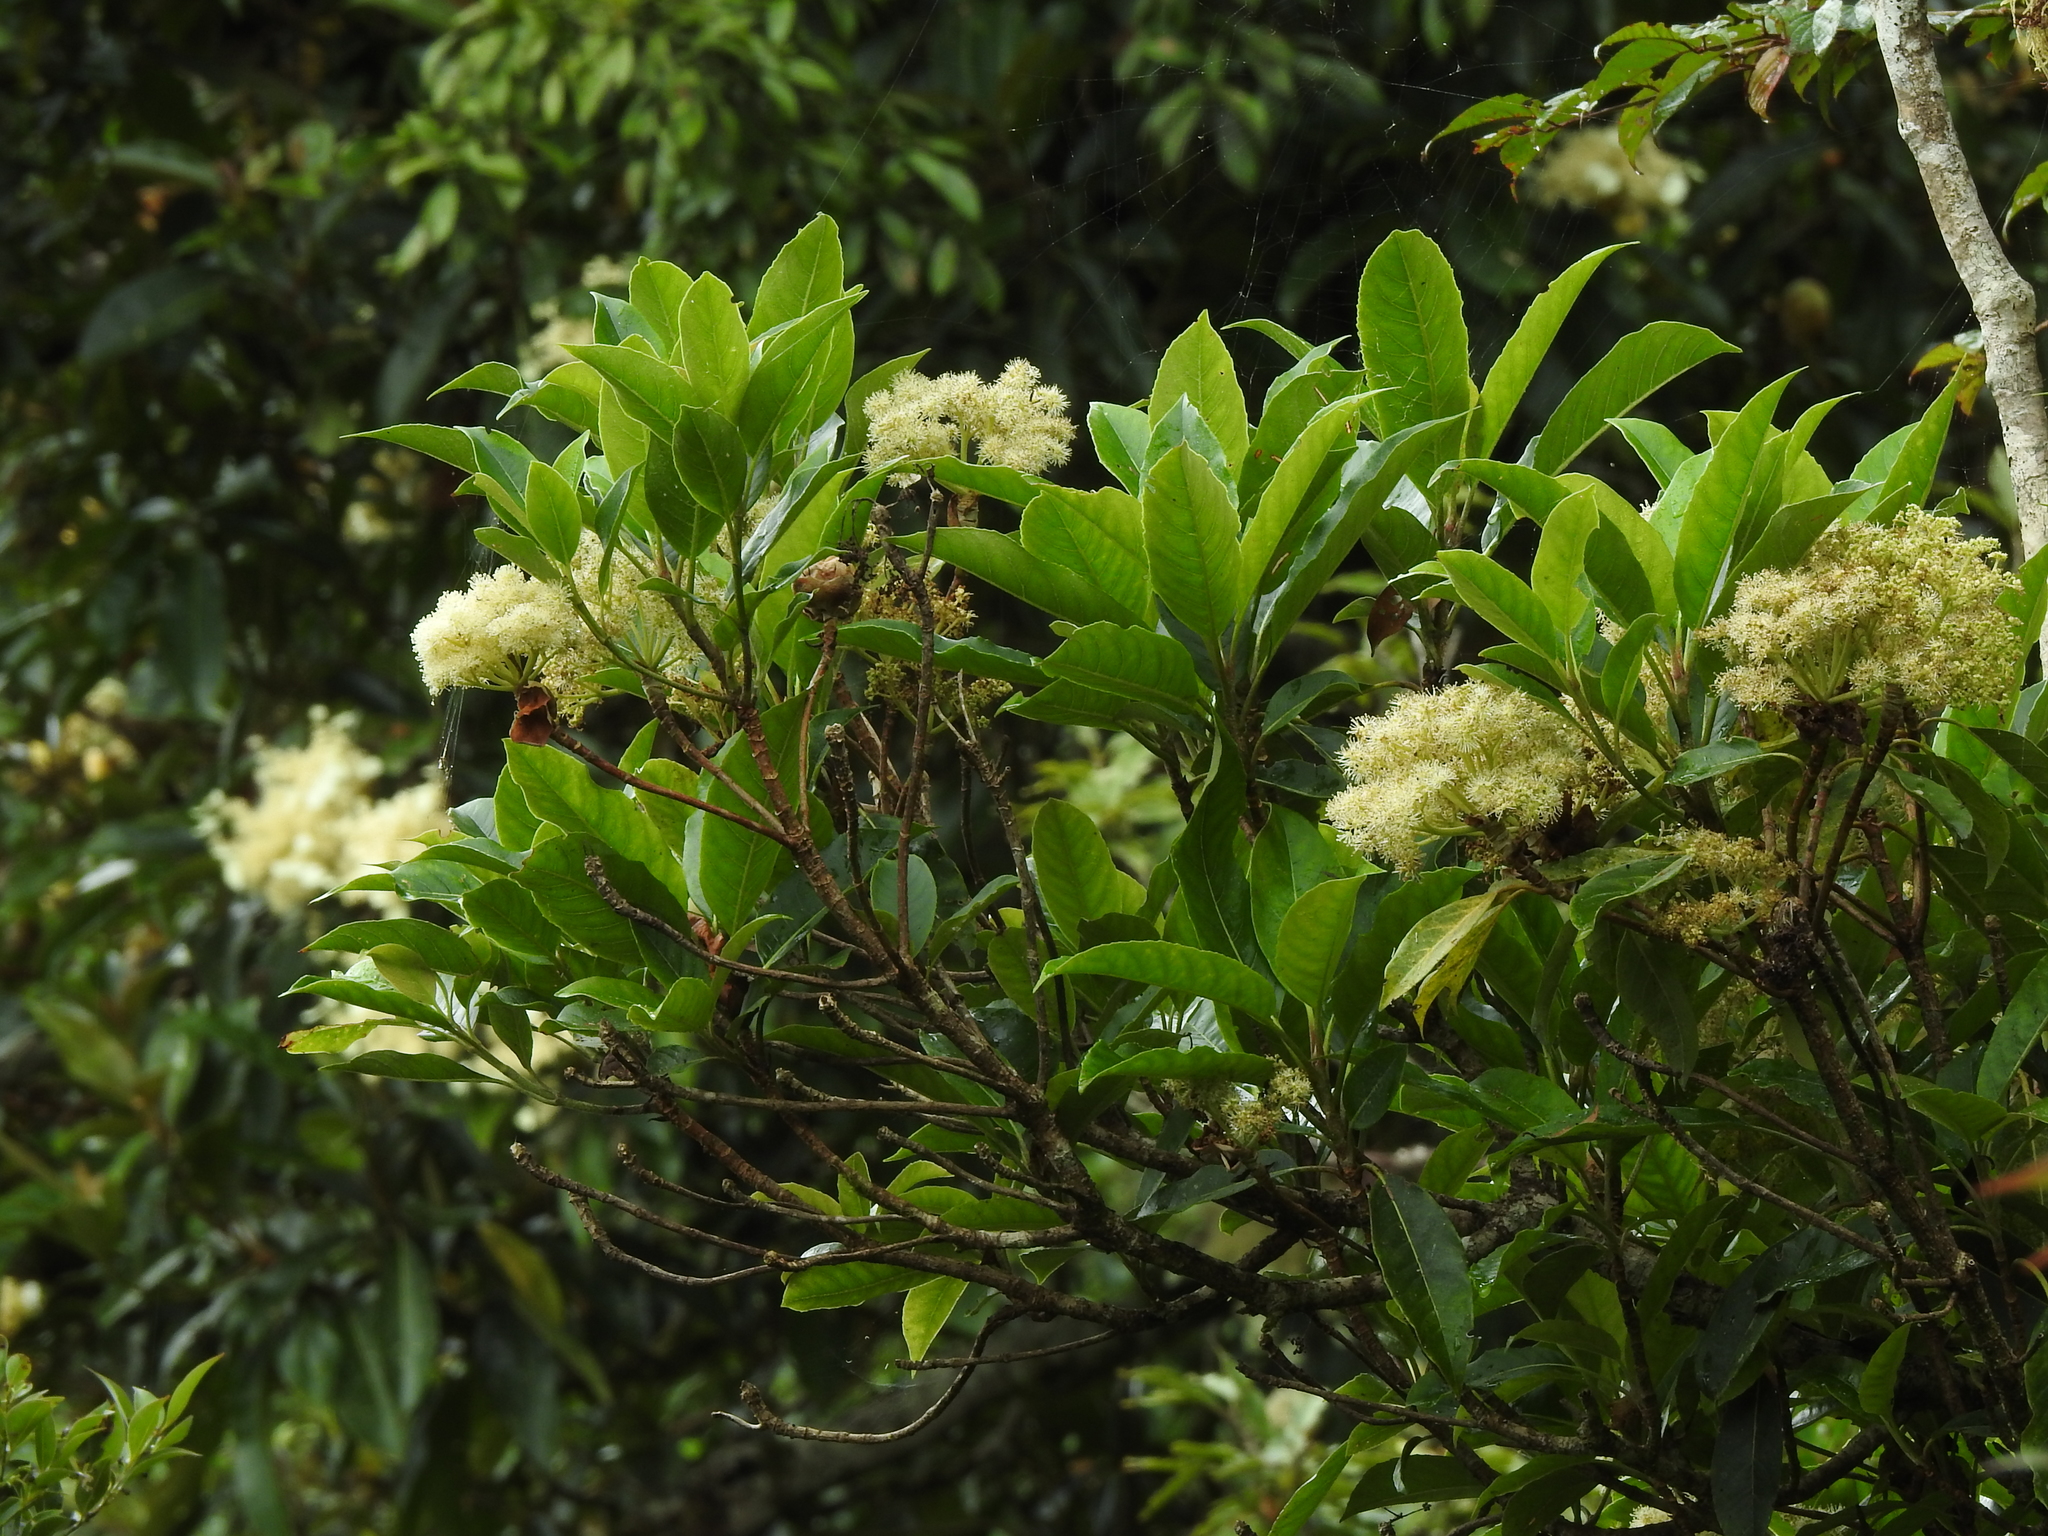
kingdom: Plantae
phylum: Tracheophyta
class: Magnoliopsida
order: Cornales
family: Hydrangeaceae
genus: Hydrangea
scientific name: Hydrangea integrifolia
